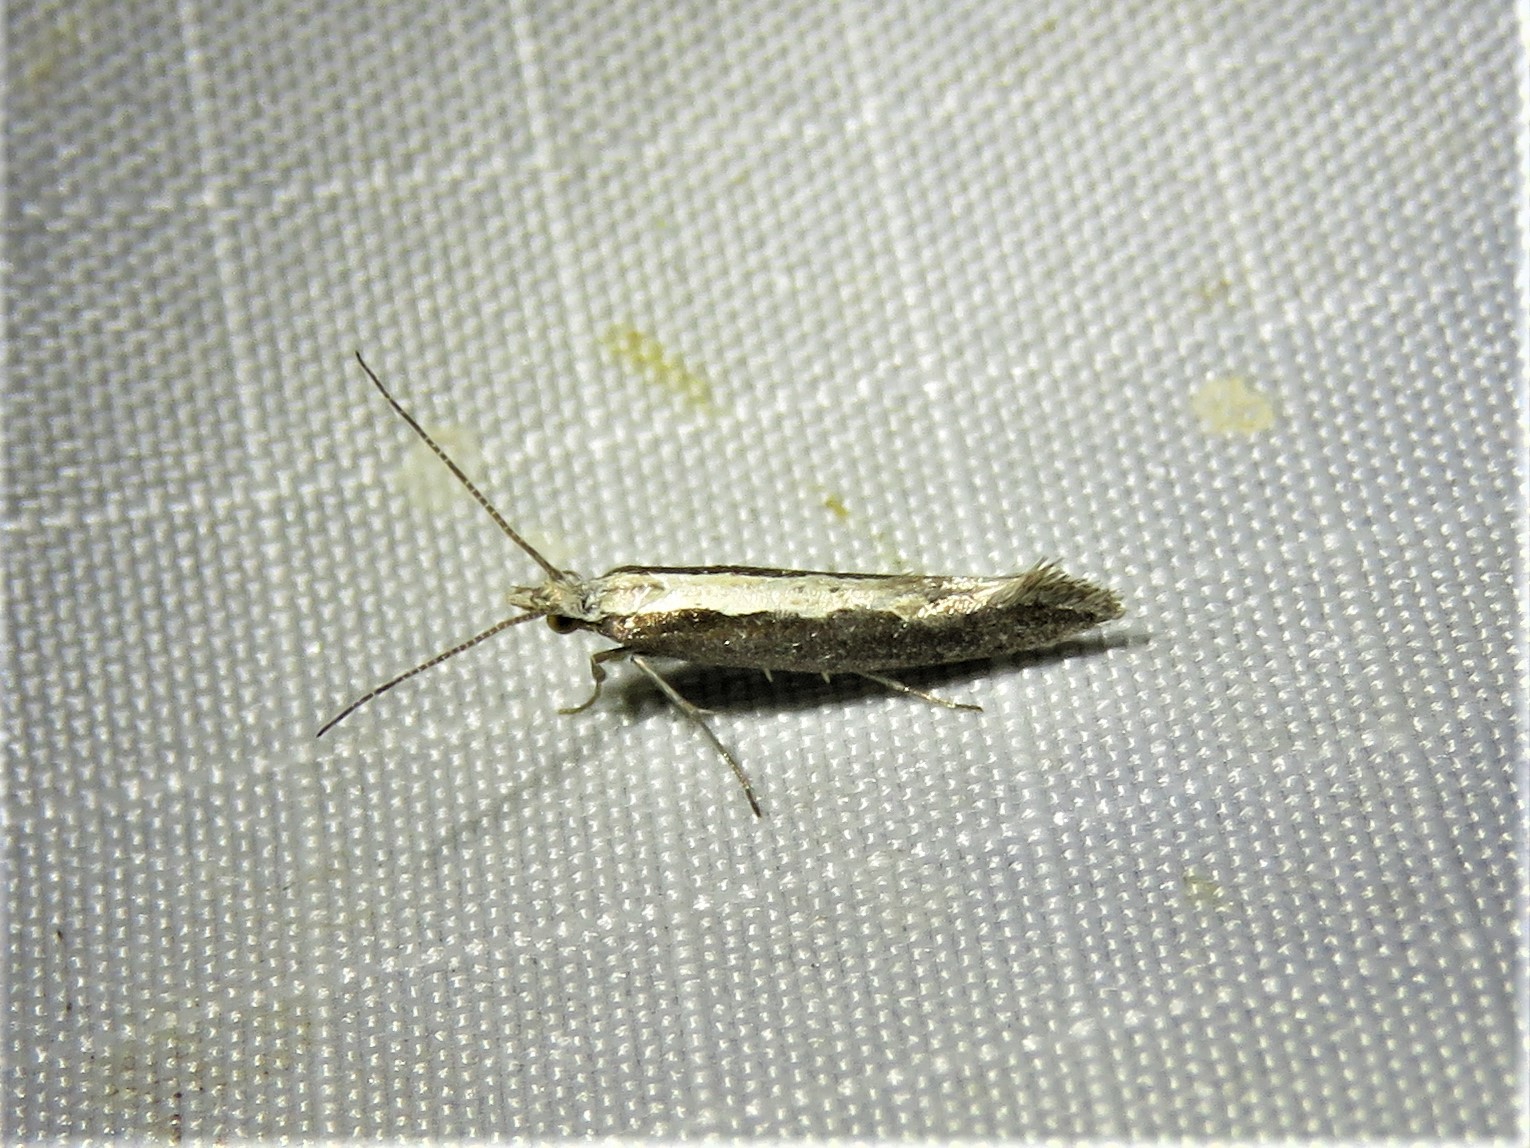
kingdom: Animalia
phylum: Arthropoda
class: Insecta
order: Lepidoptera
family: Plutellidae
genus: Plutella
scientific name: Plutella xylostella
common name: Diamond-back moth
